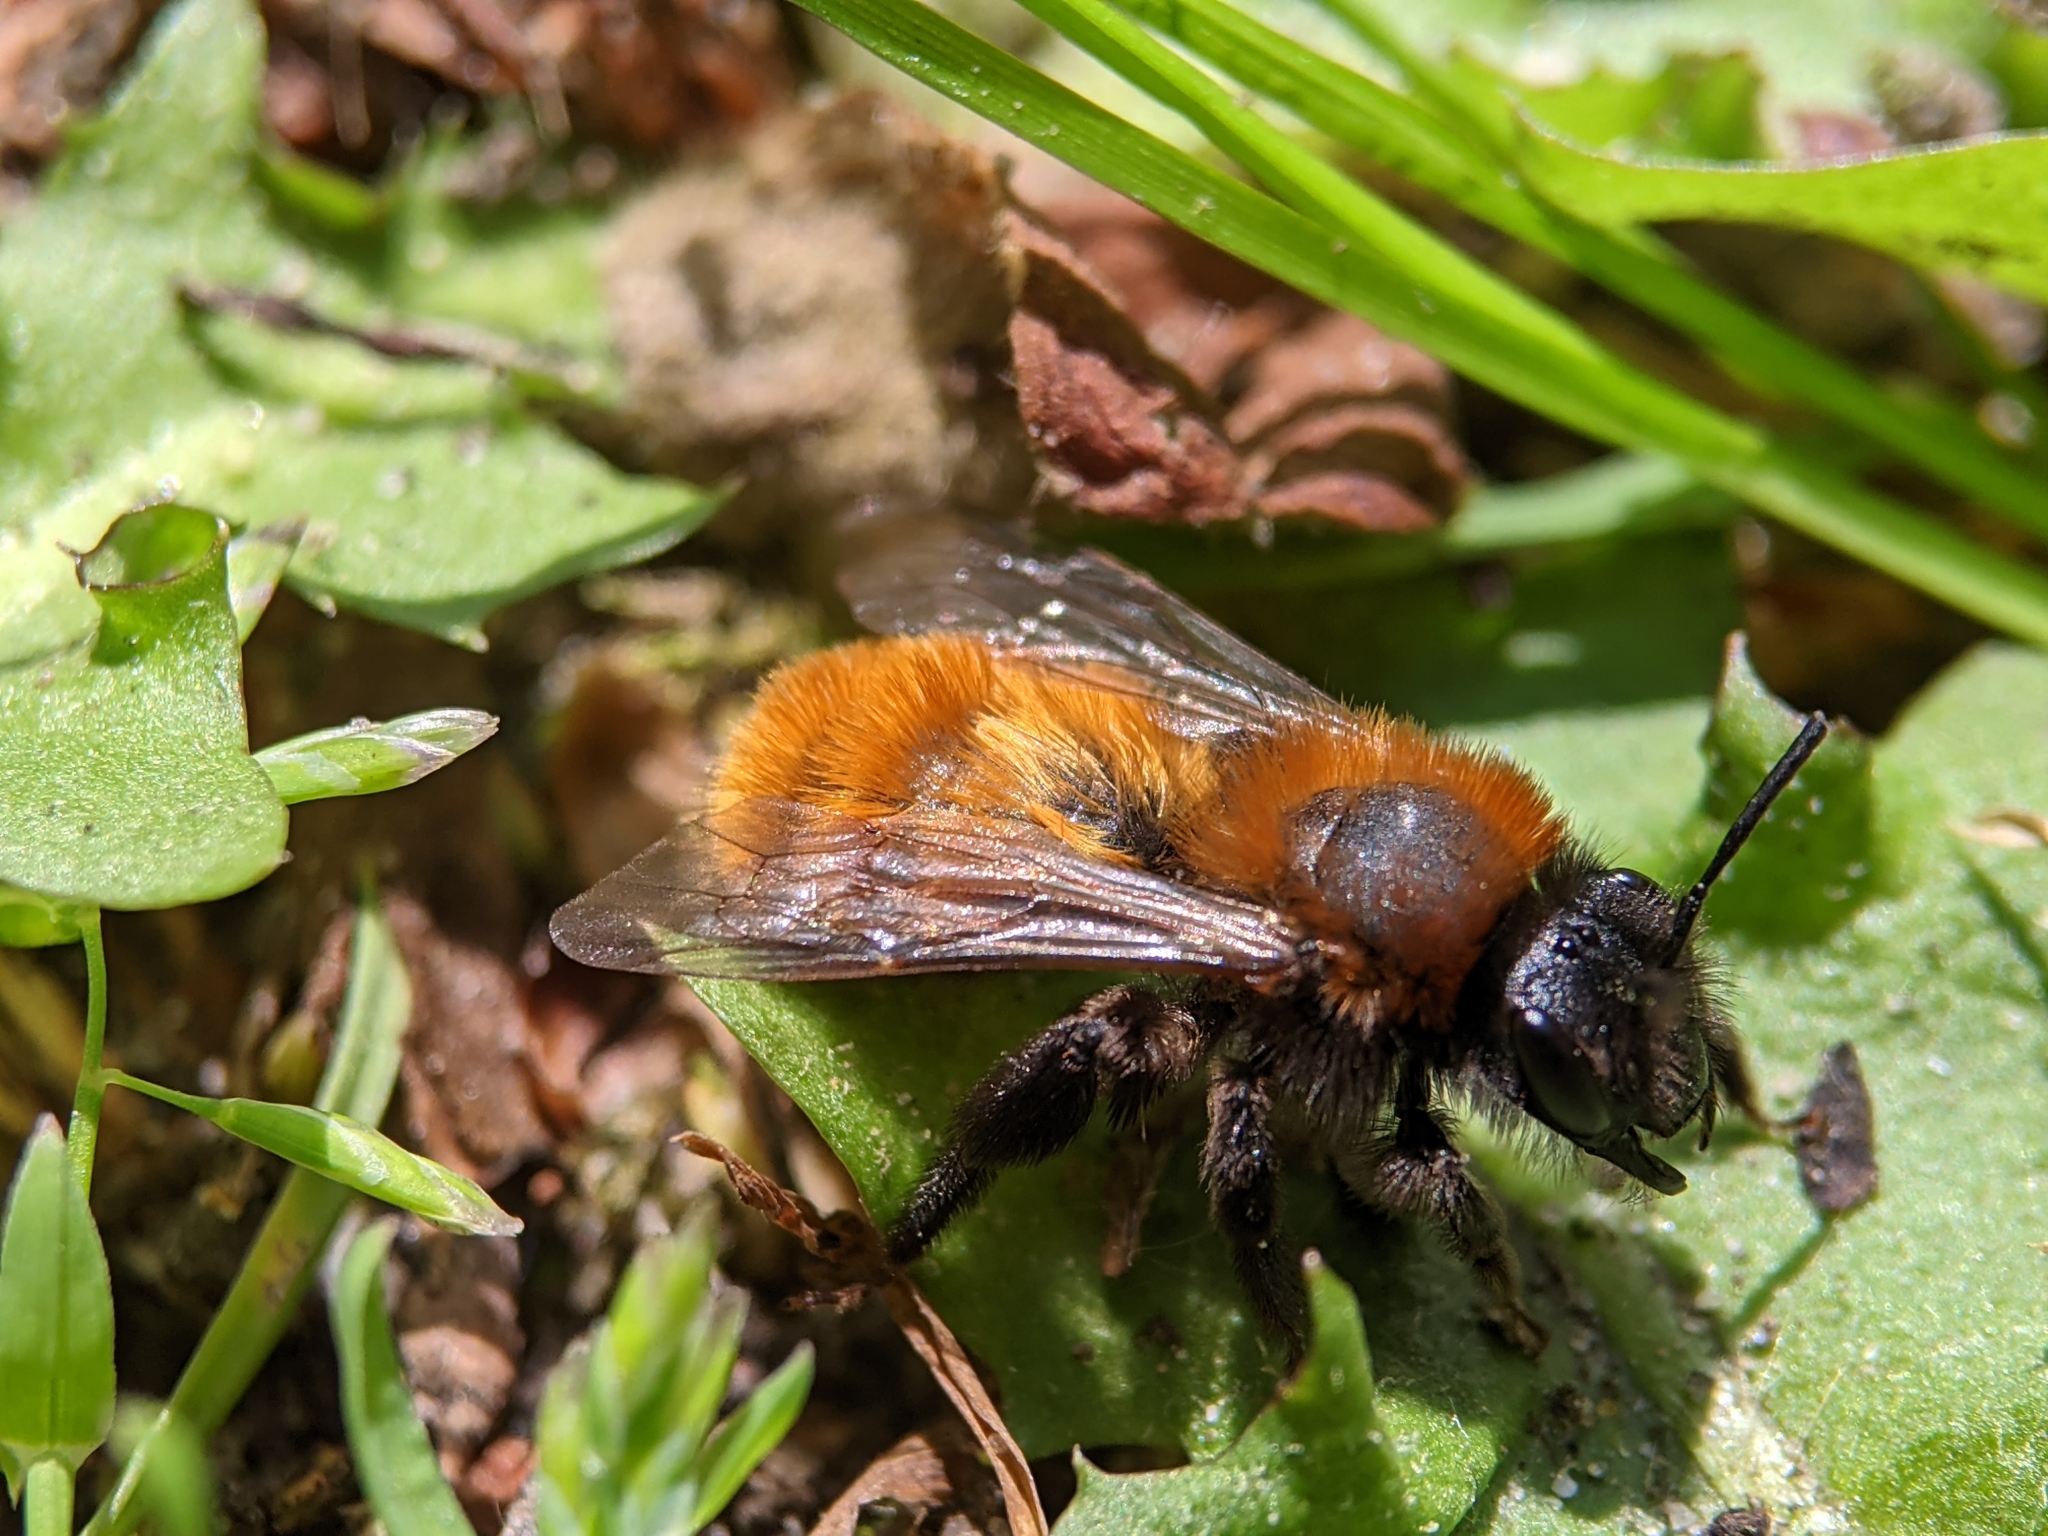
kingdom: Animalia
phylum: Arthropoda
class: Insecta
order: Hymenoptera
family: Andrenidae
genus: Andrena
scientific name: Andrena fulva
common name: Tawny mining bee
